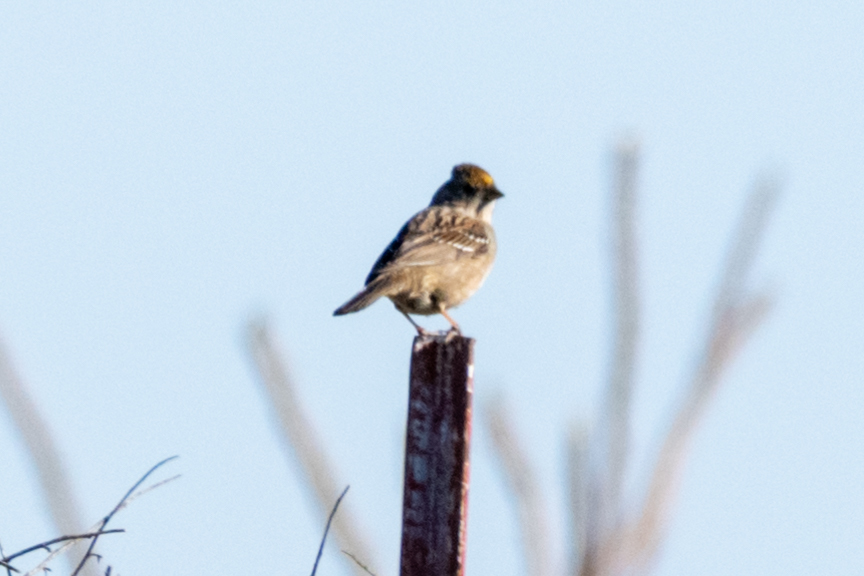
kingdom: Animalia
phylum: Chordata
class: Aves
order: Passeriformes
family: Passerellidae
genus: Zonotrichia
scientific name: Zonotrichia atricapilla
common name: Golden-crowned sparrow
